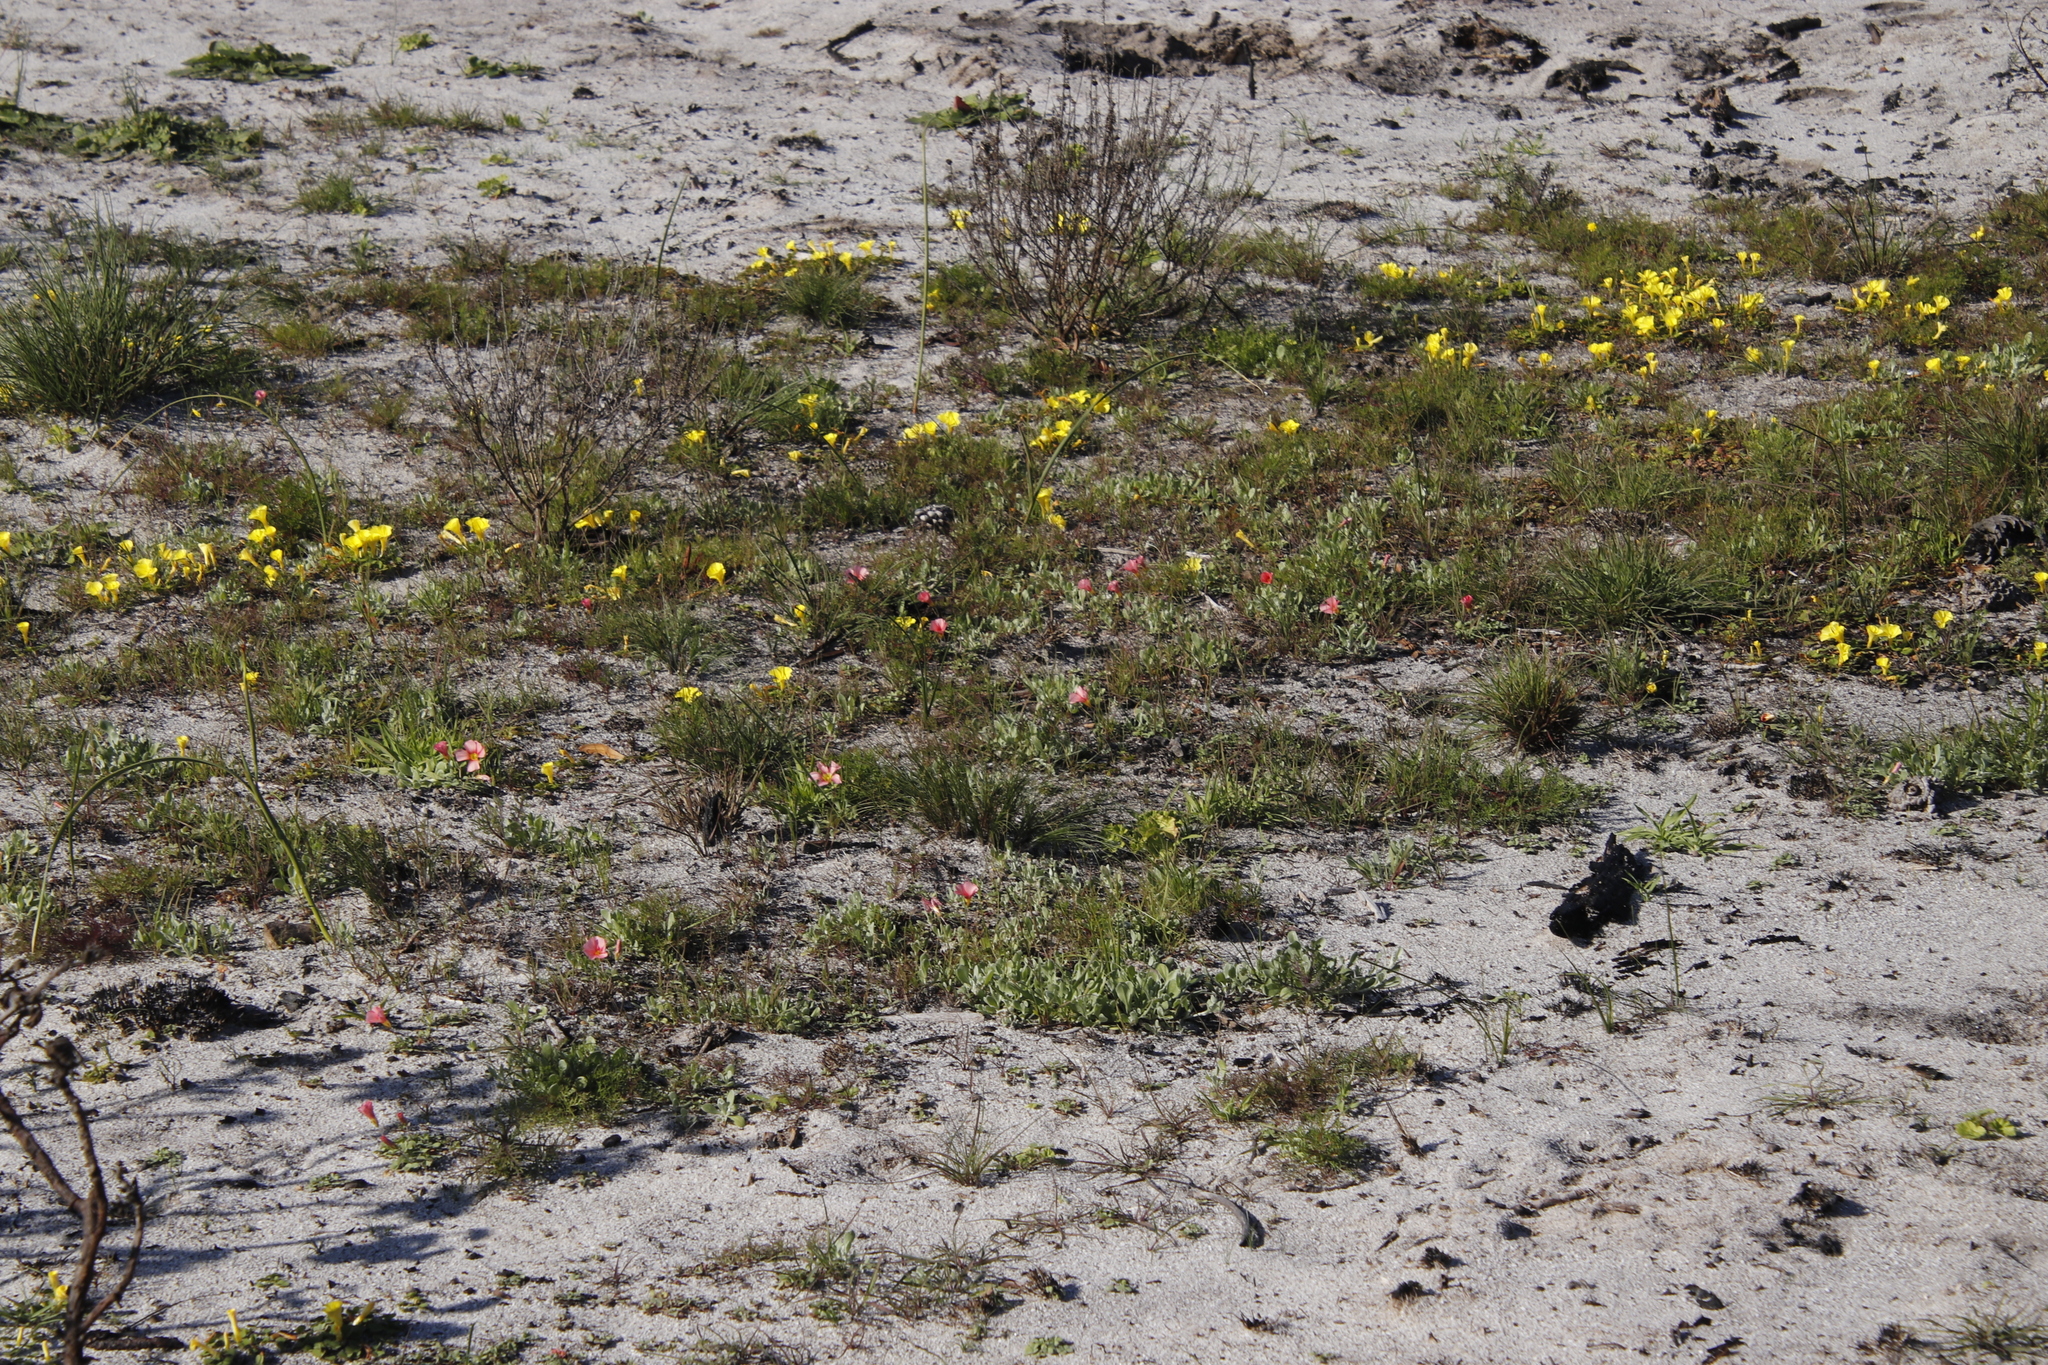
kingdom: Plantae
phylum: Tracheophyta
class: Magnoliopsida
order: Oxalidales
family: Oxalidaceae
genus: Oxalis
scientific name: Oxalis obtusa
